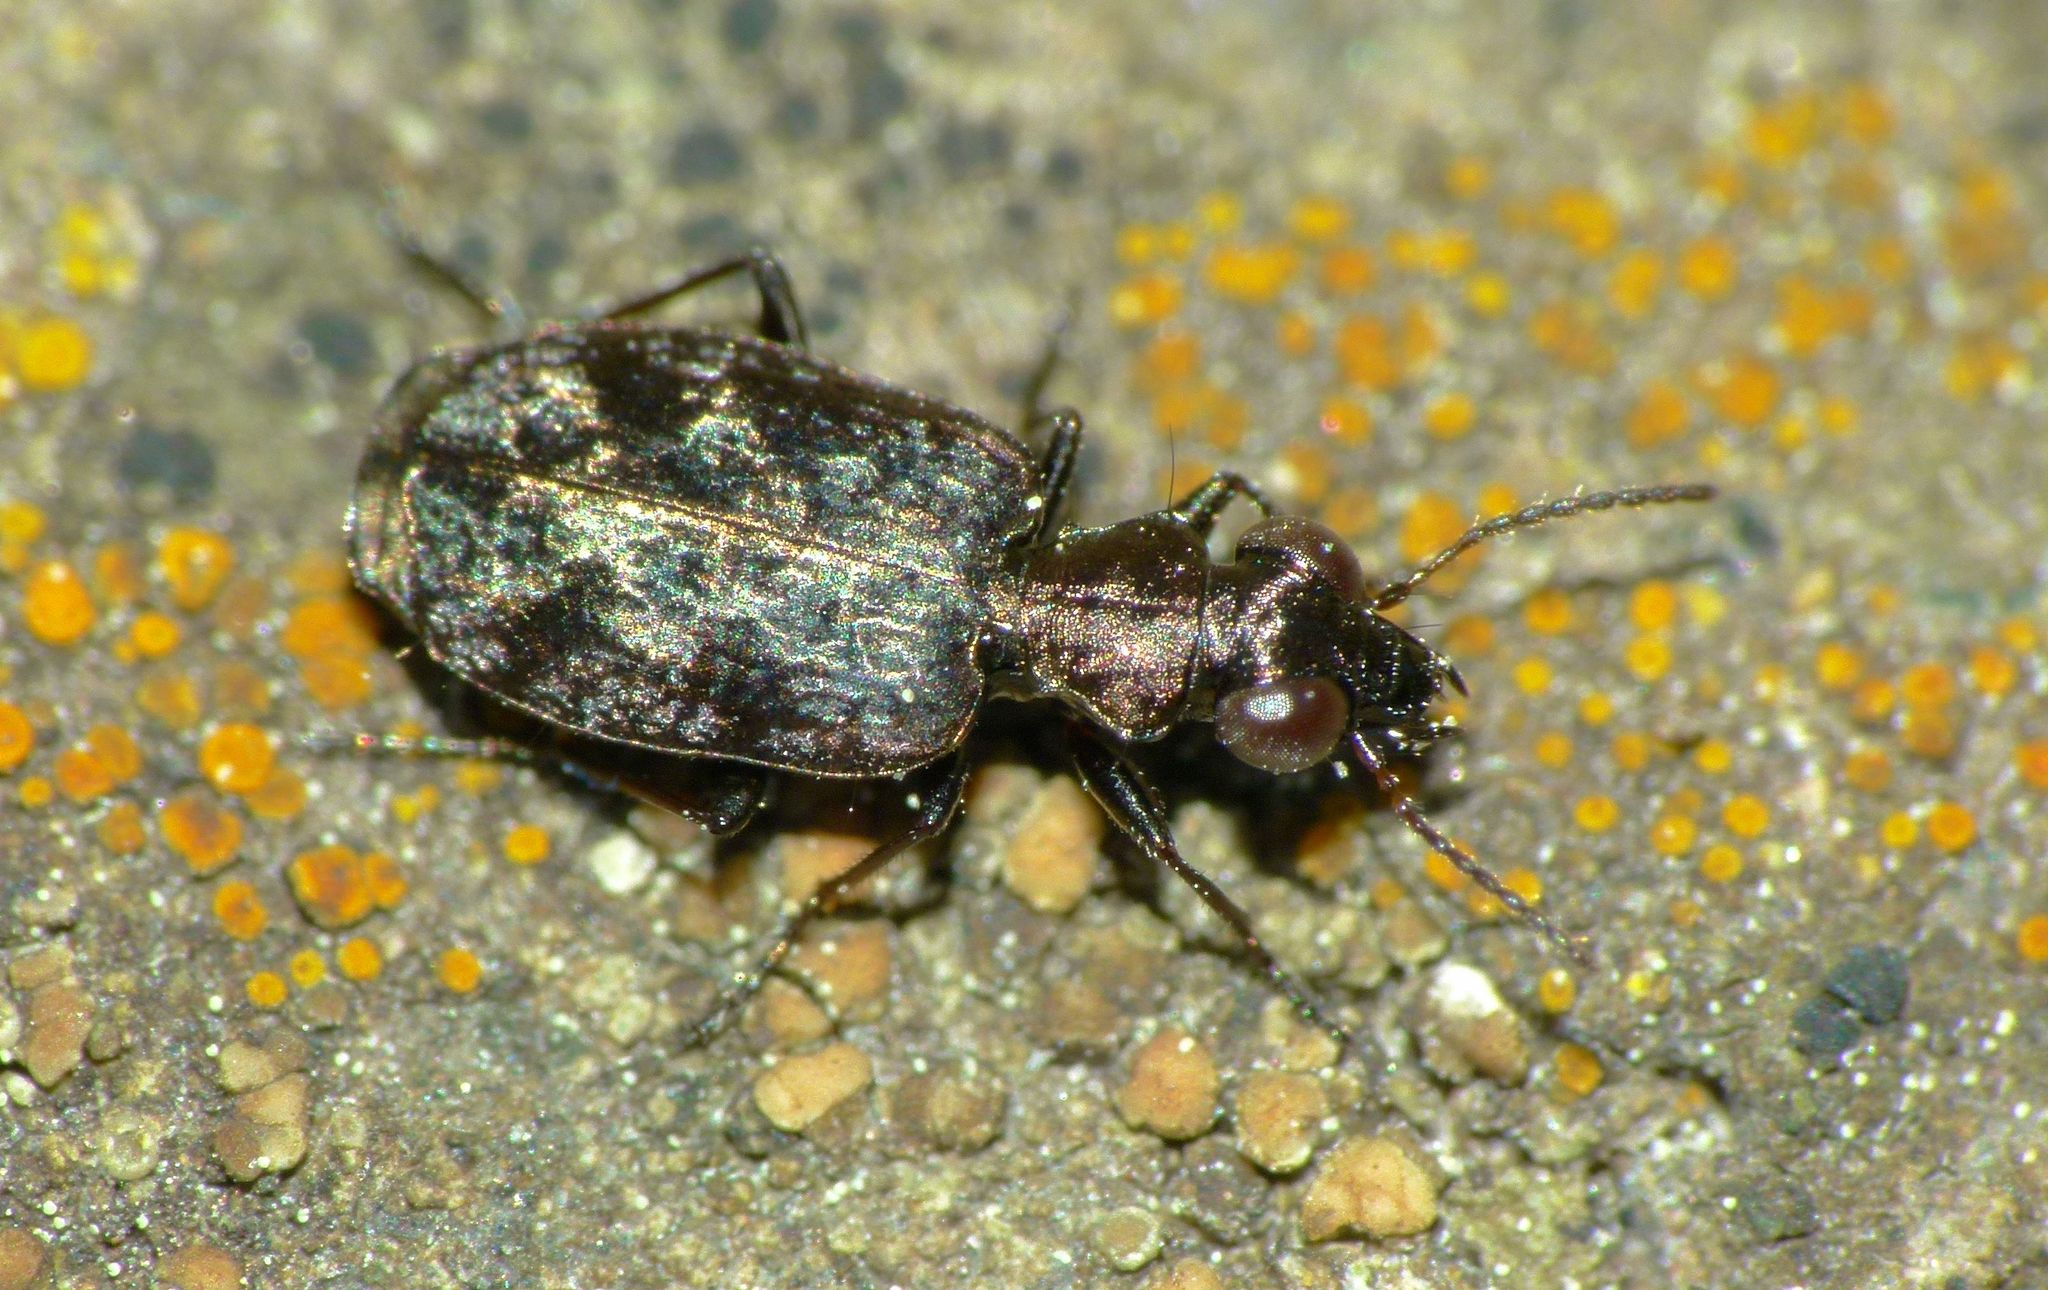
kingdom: Animalia
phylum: Arthropoda
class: Insecta
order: Coleoptera
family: Carabidae
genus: Scopodes
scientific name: Scopodes fossulatus
